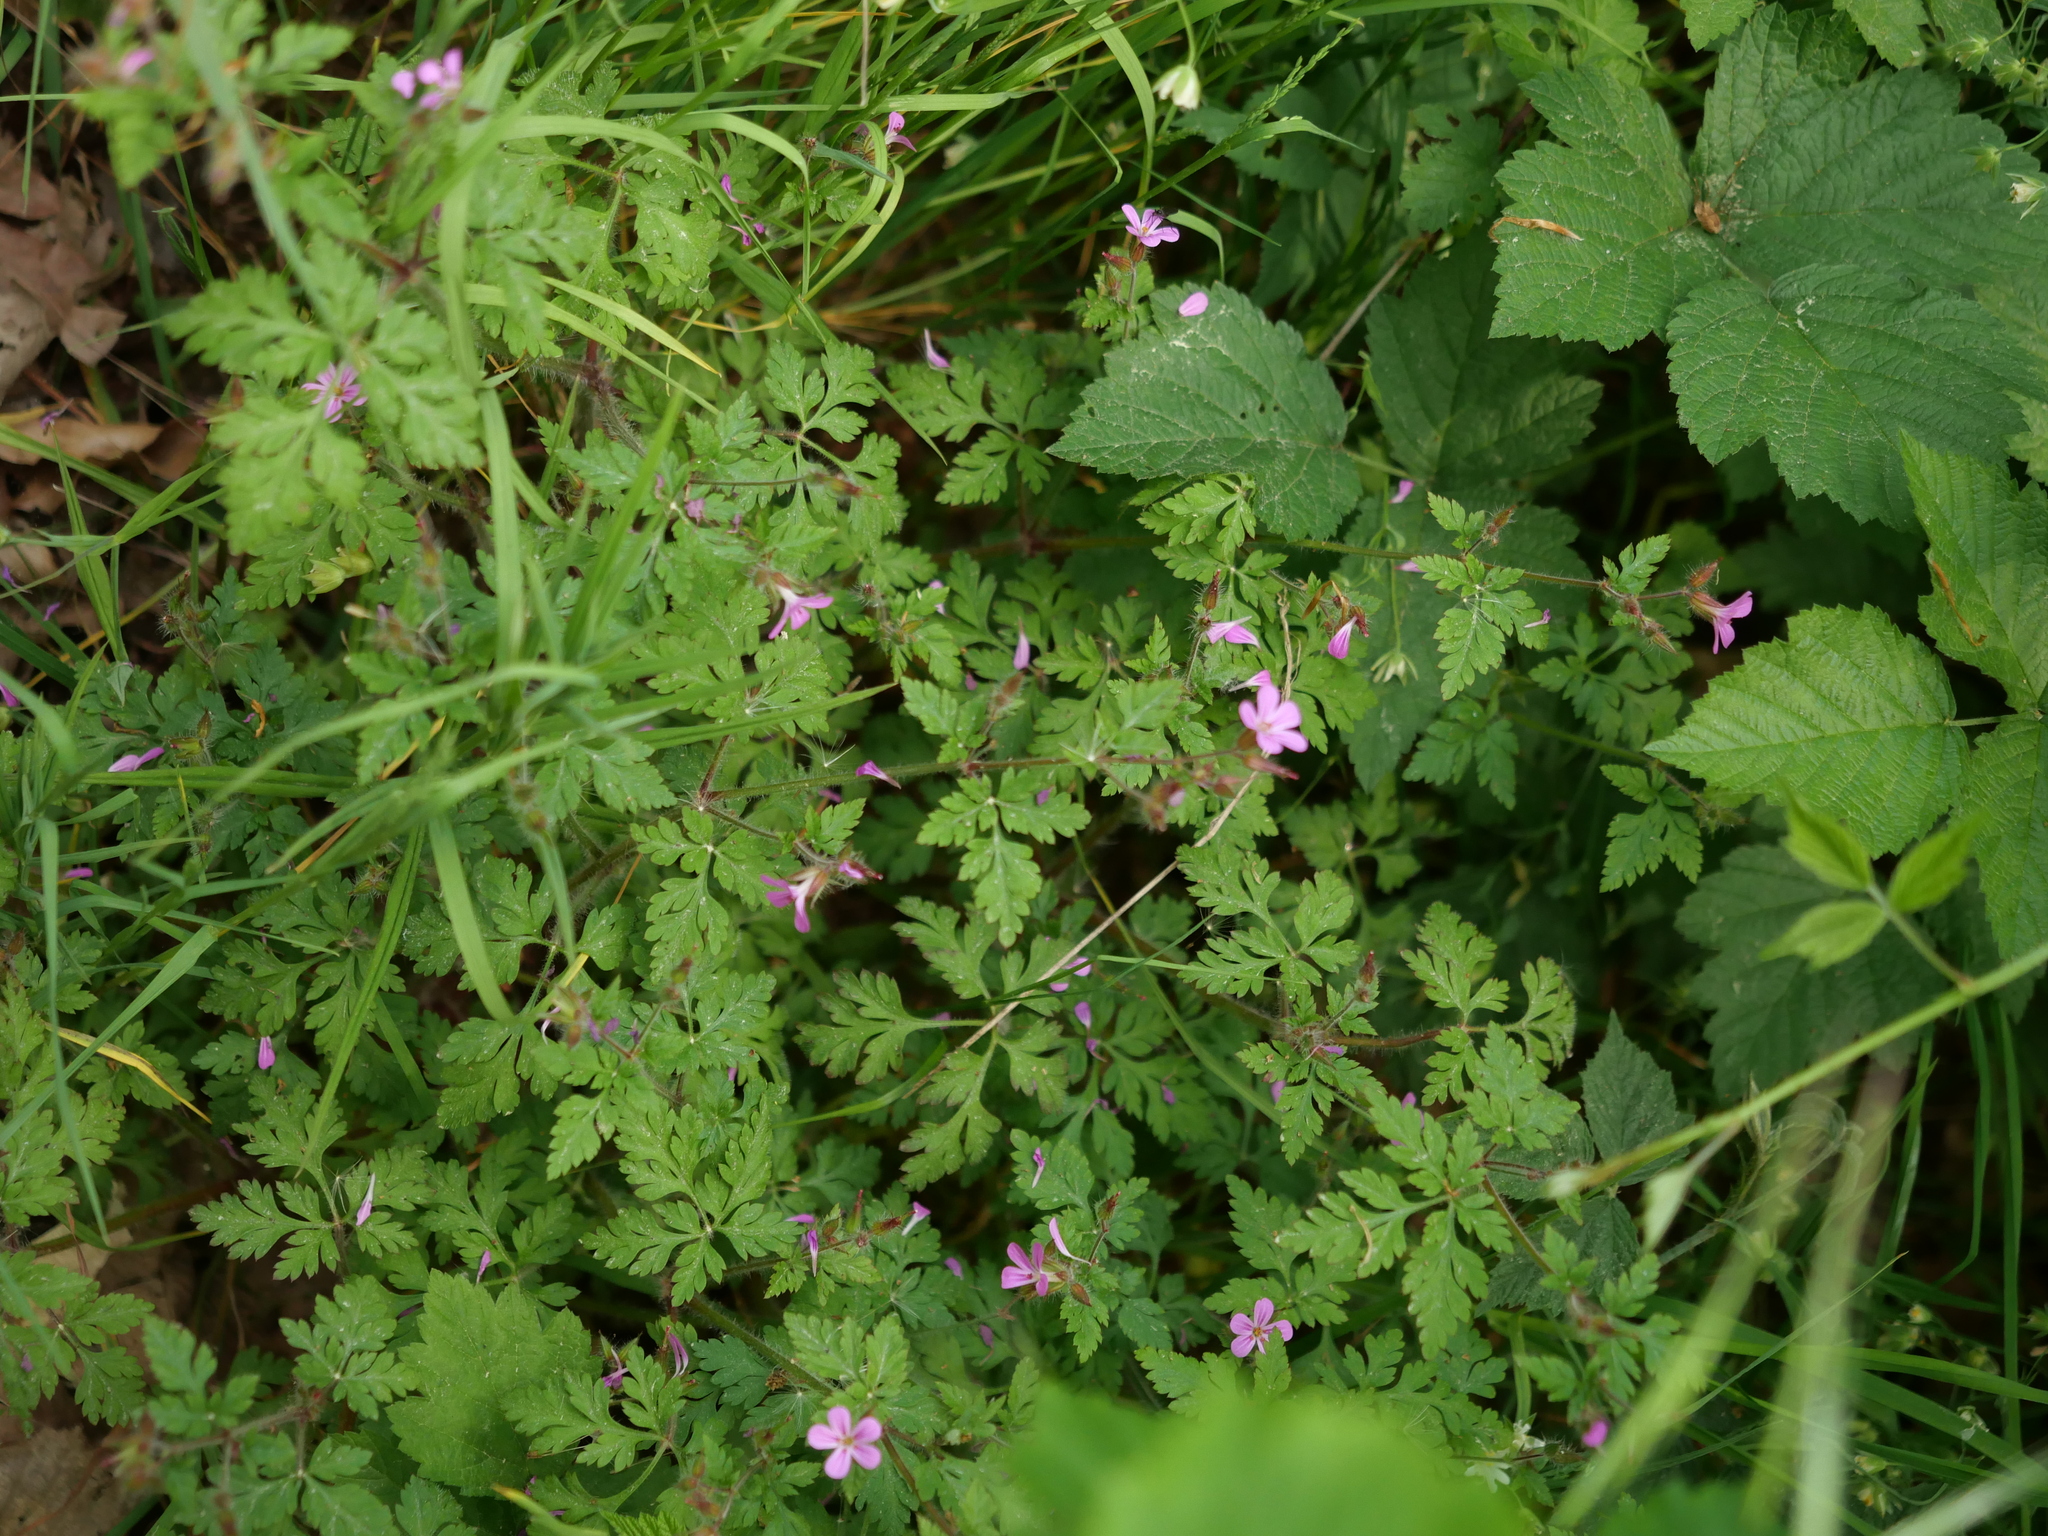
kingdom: Plantae
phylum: Tracheophyta
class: Magnoliopsida
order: Geraniales
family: Geraniaceae
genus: Geranium
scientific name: Geranium robertianum
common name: Herb-robert
